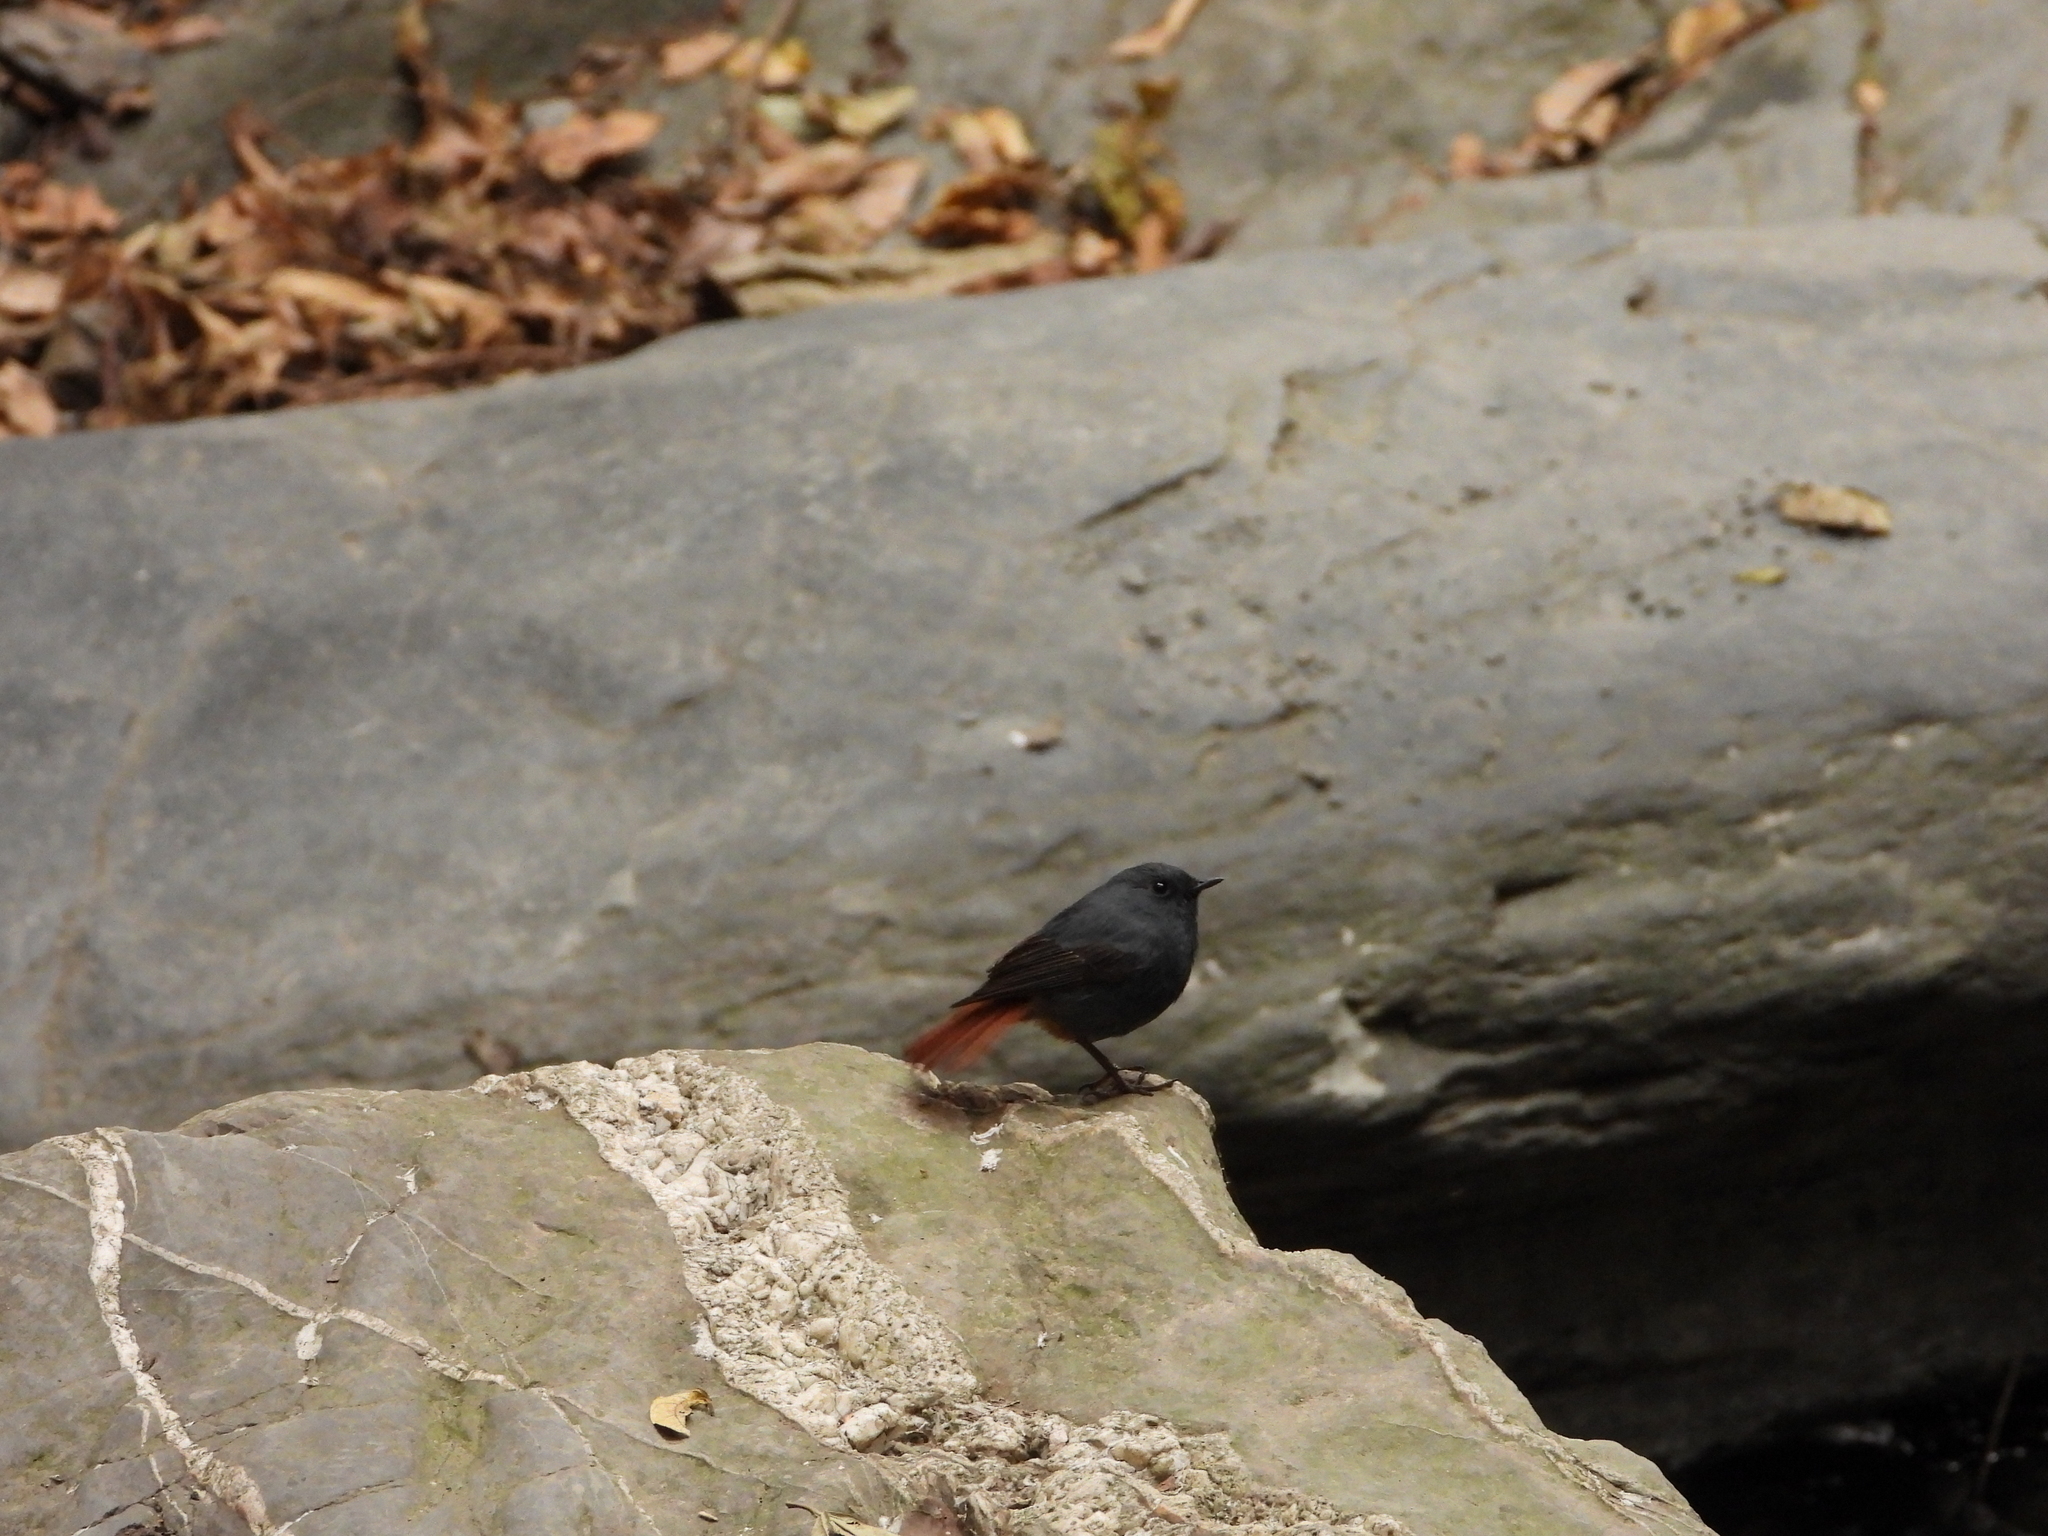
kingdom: Animalia
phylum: Chordata
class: Aves
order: Passeriformes
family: Muscicapidae
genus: Phoenicurus
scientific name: Phoenicurus fuliginosus
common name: Plumbeous water redstart
